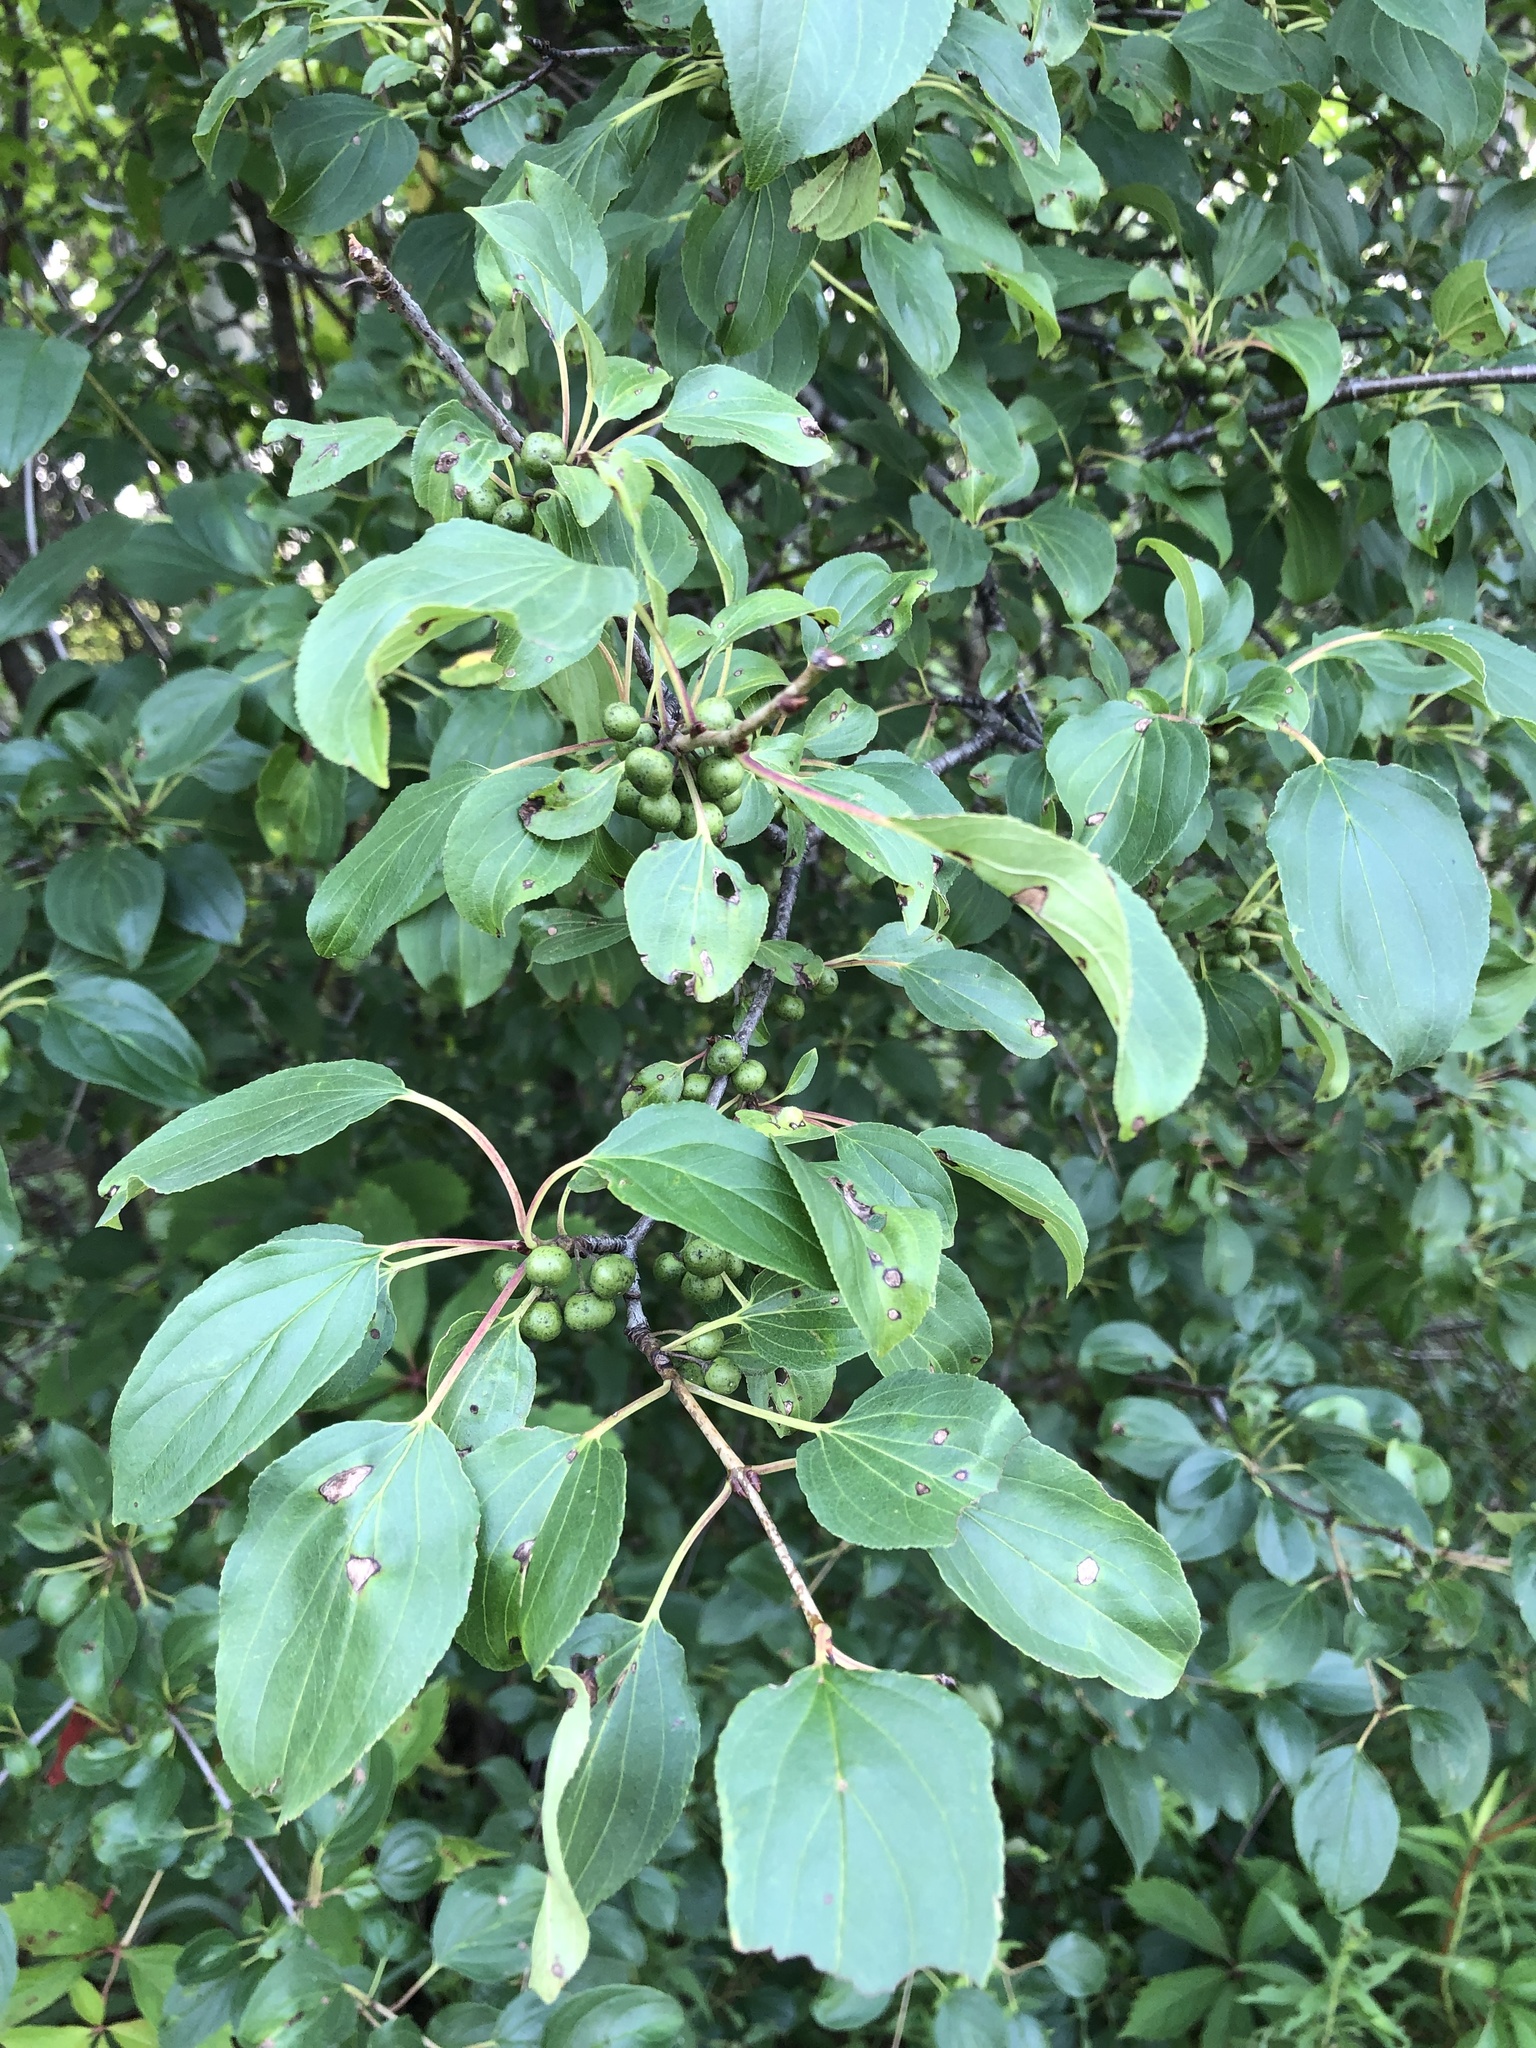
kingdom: Plantae
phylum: Tracheophyta
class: Magnoliopsida
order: Rosales
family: Rhamnaceae
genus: Rhamnus
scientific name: Rhamnus cathartica
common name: Common buckthorn
